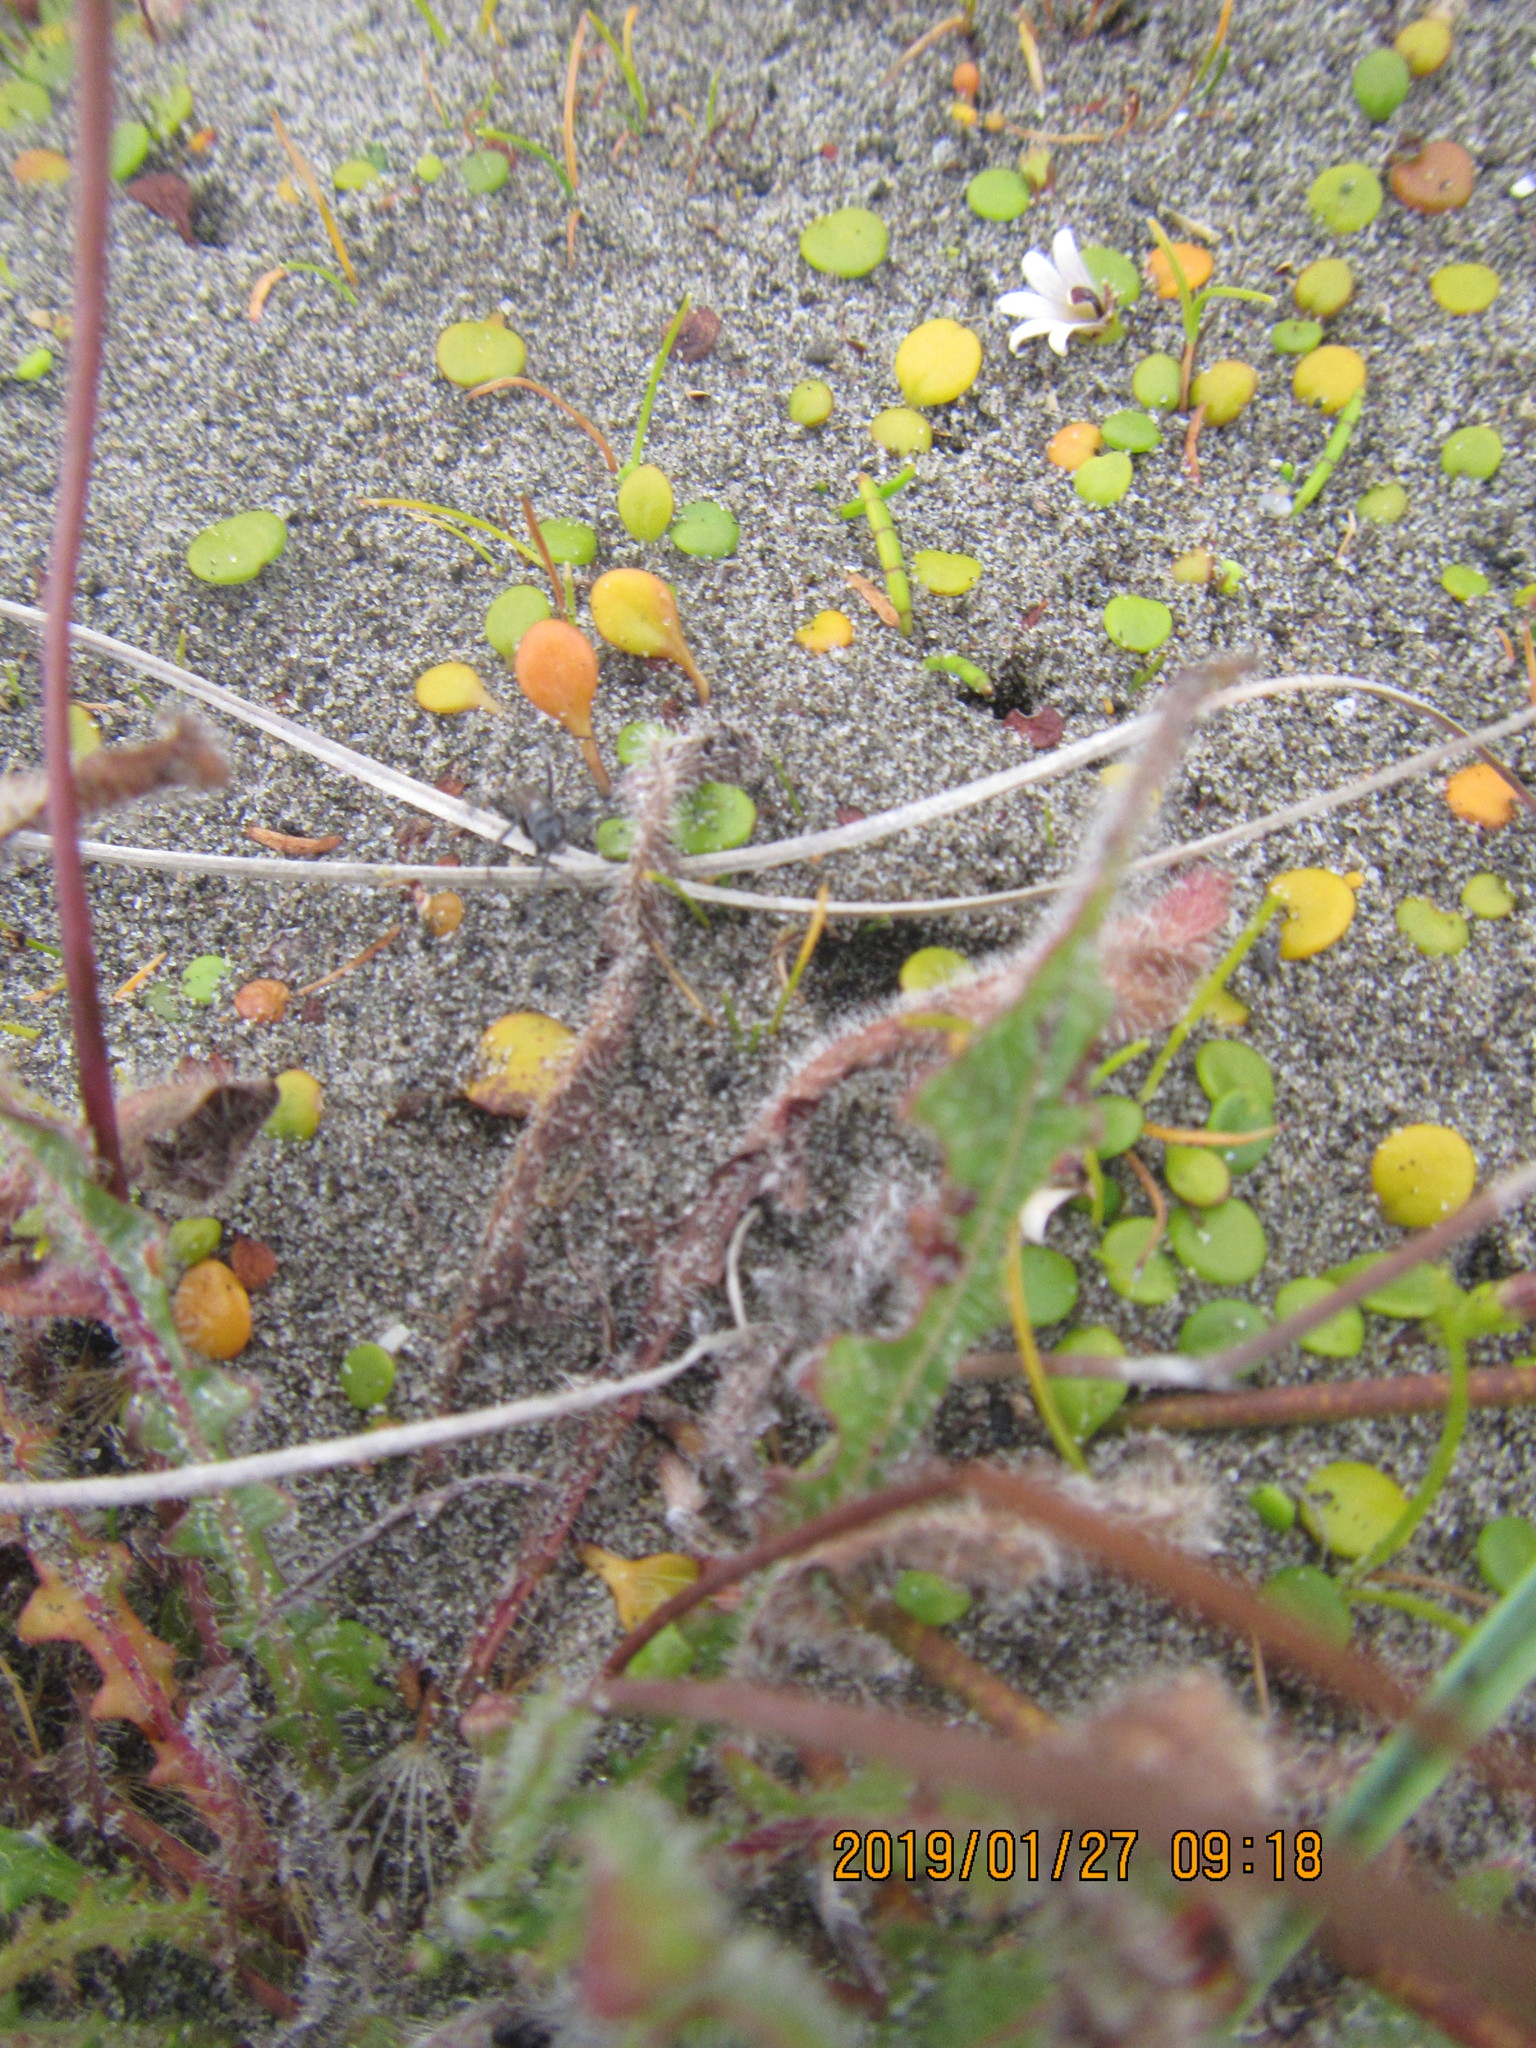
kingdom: Animalia
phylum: Arthropoda
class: Insecta
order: Hymenoptera
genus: Trichocurgus
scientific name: Trichocurgus
